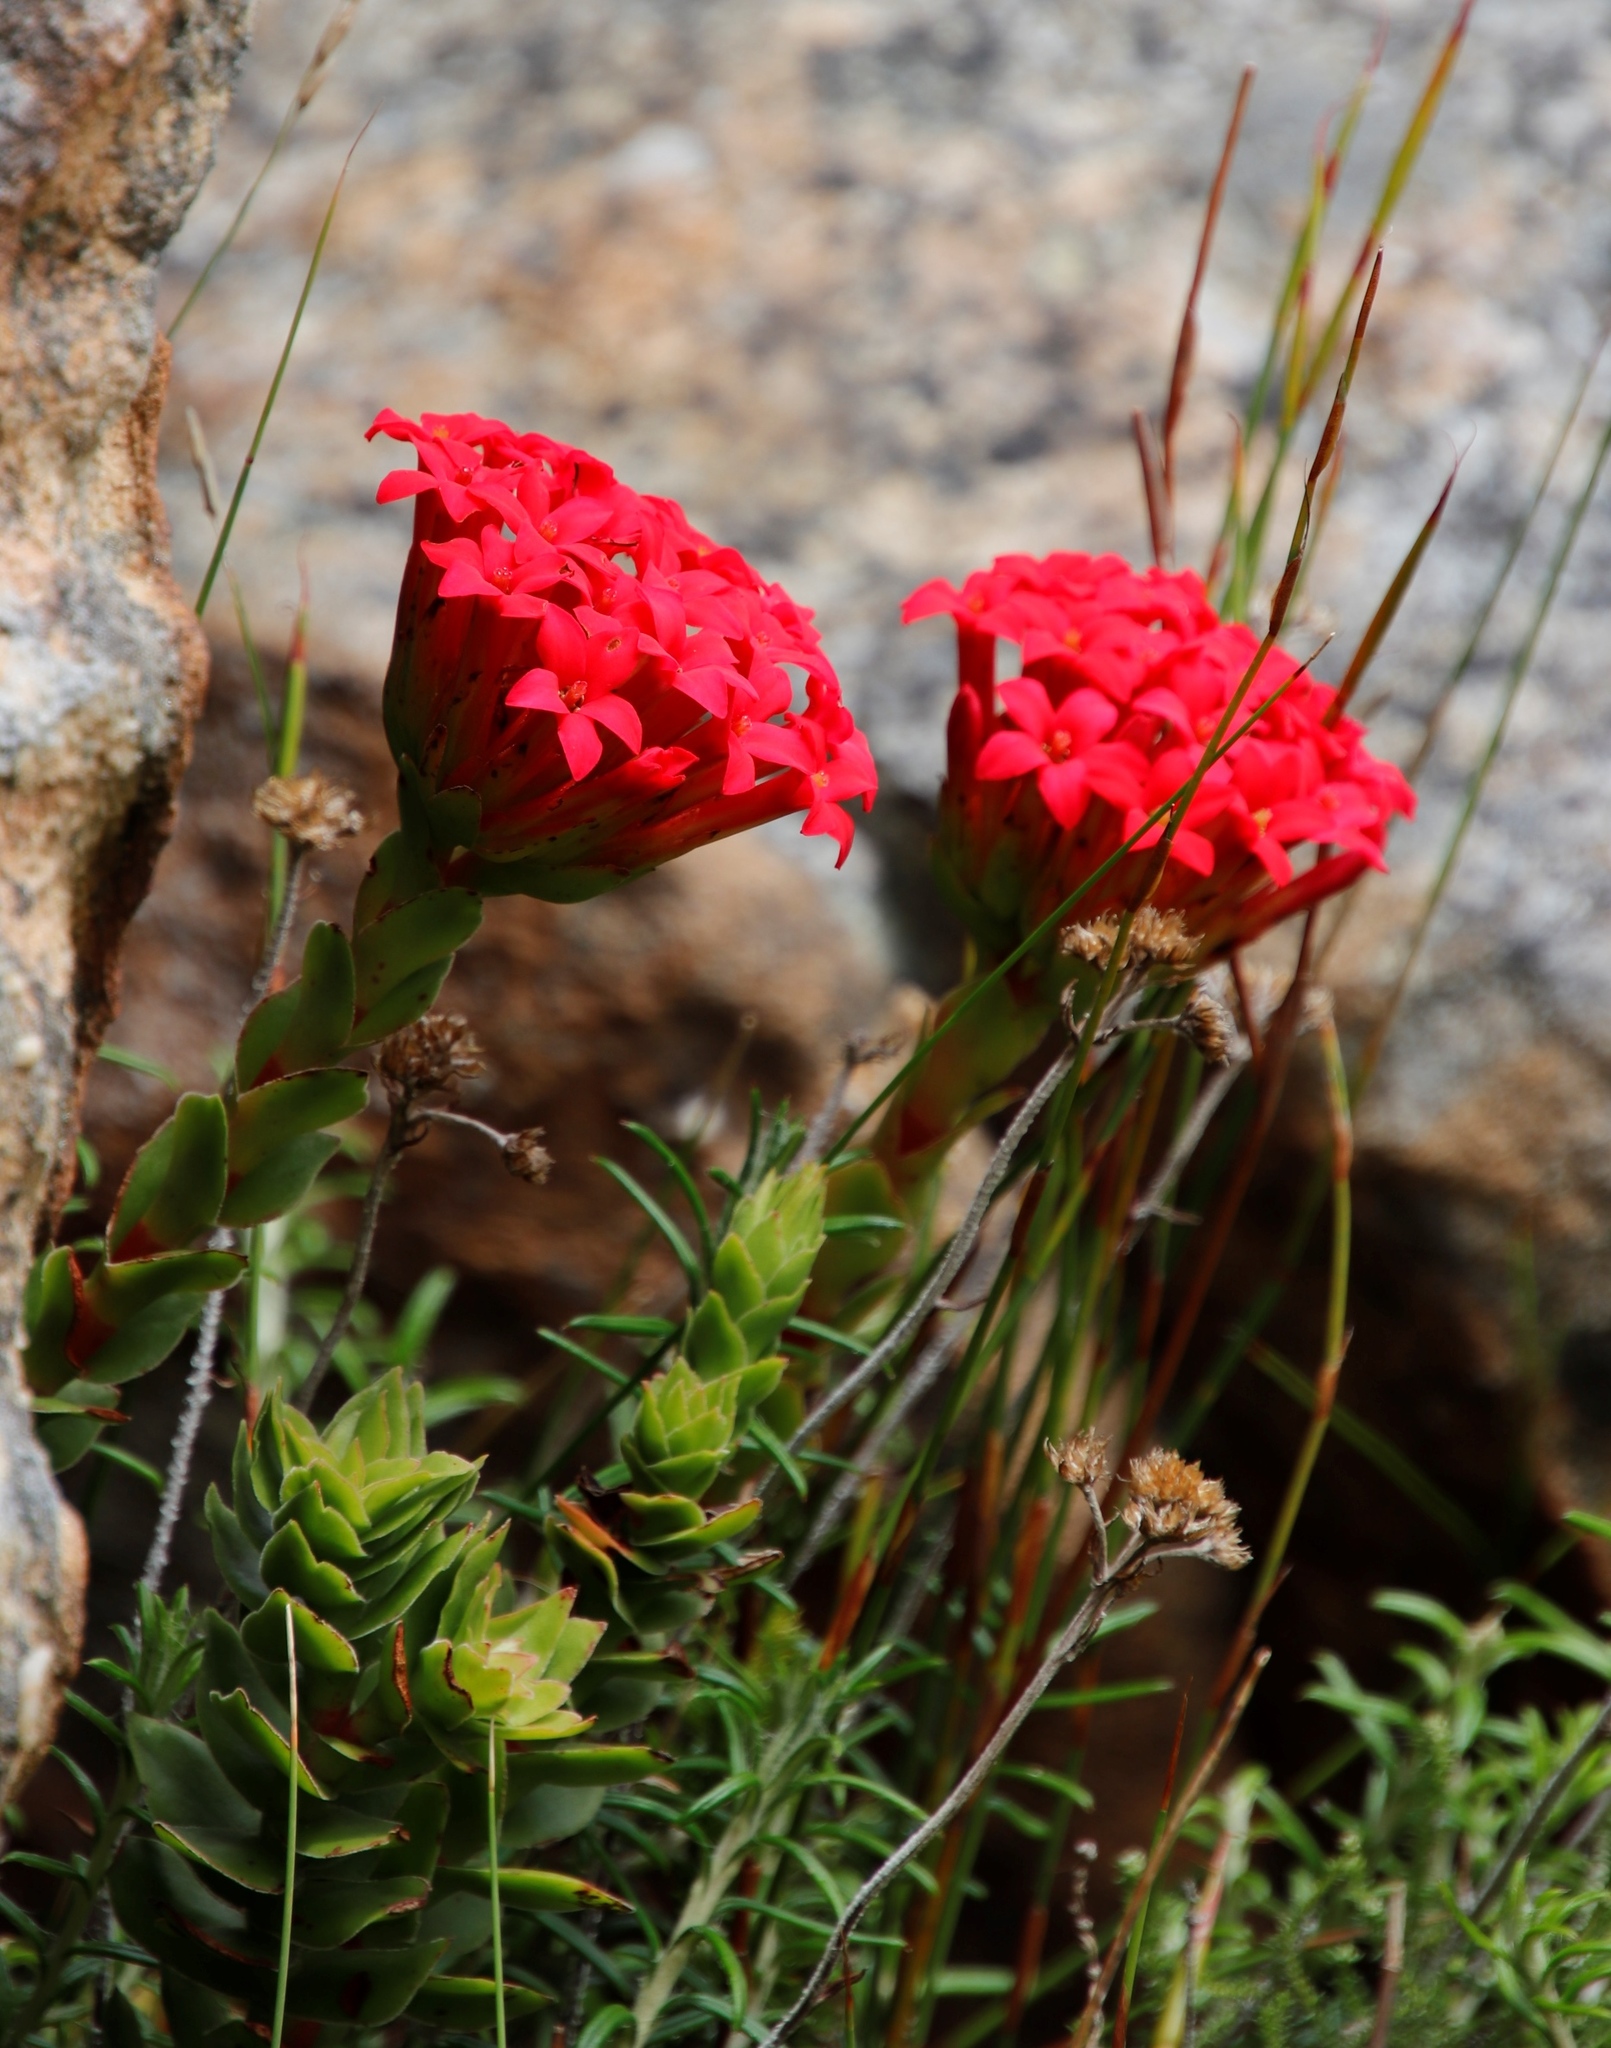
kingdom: Plantae
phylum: Tracheophyta
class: Magnoliopsida
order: Saxifragales
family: Crassulaceae
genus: Crassula
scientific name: Crassula coccinea
